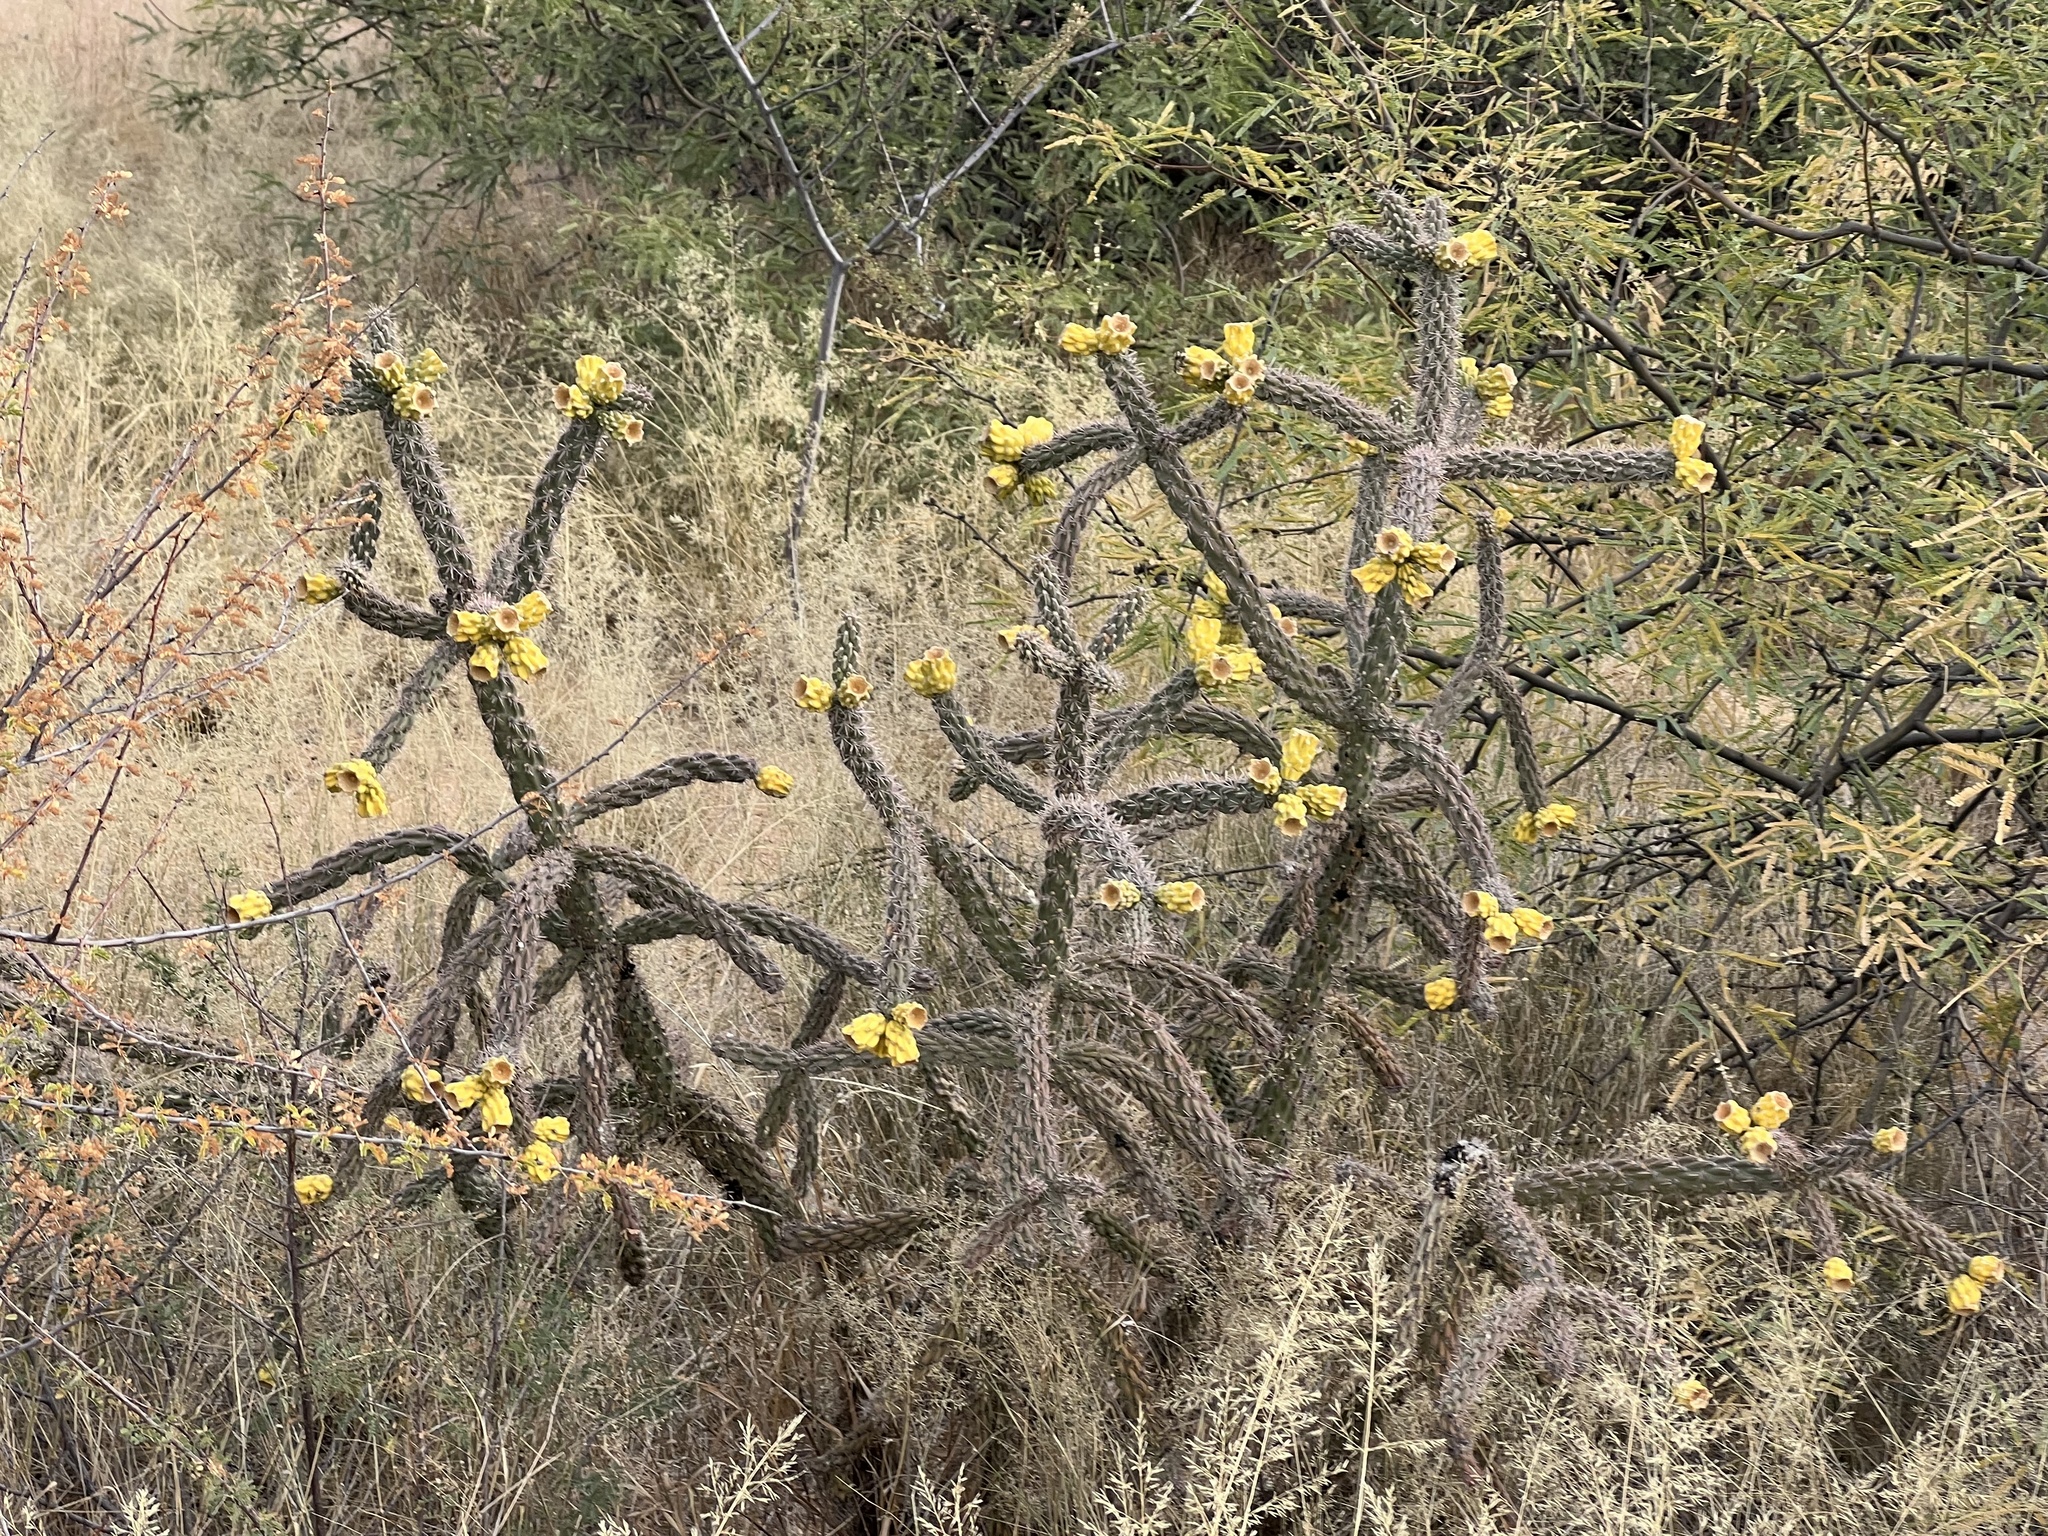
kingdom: Plantae
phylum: Tracheophyta
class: Magnoliopsida
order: Caryophyllales
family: Cactaceae
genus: Cylindropuntia
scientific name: Cylindropuntia imbricata
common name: Candelabrum cactus
